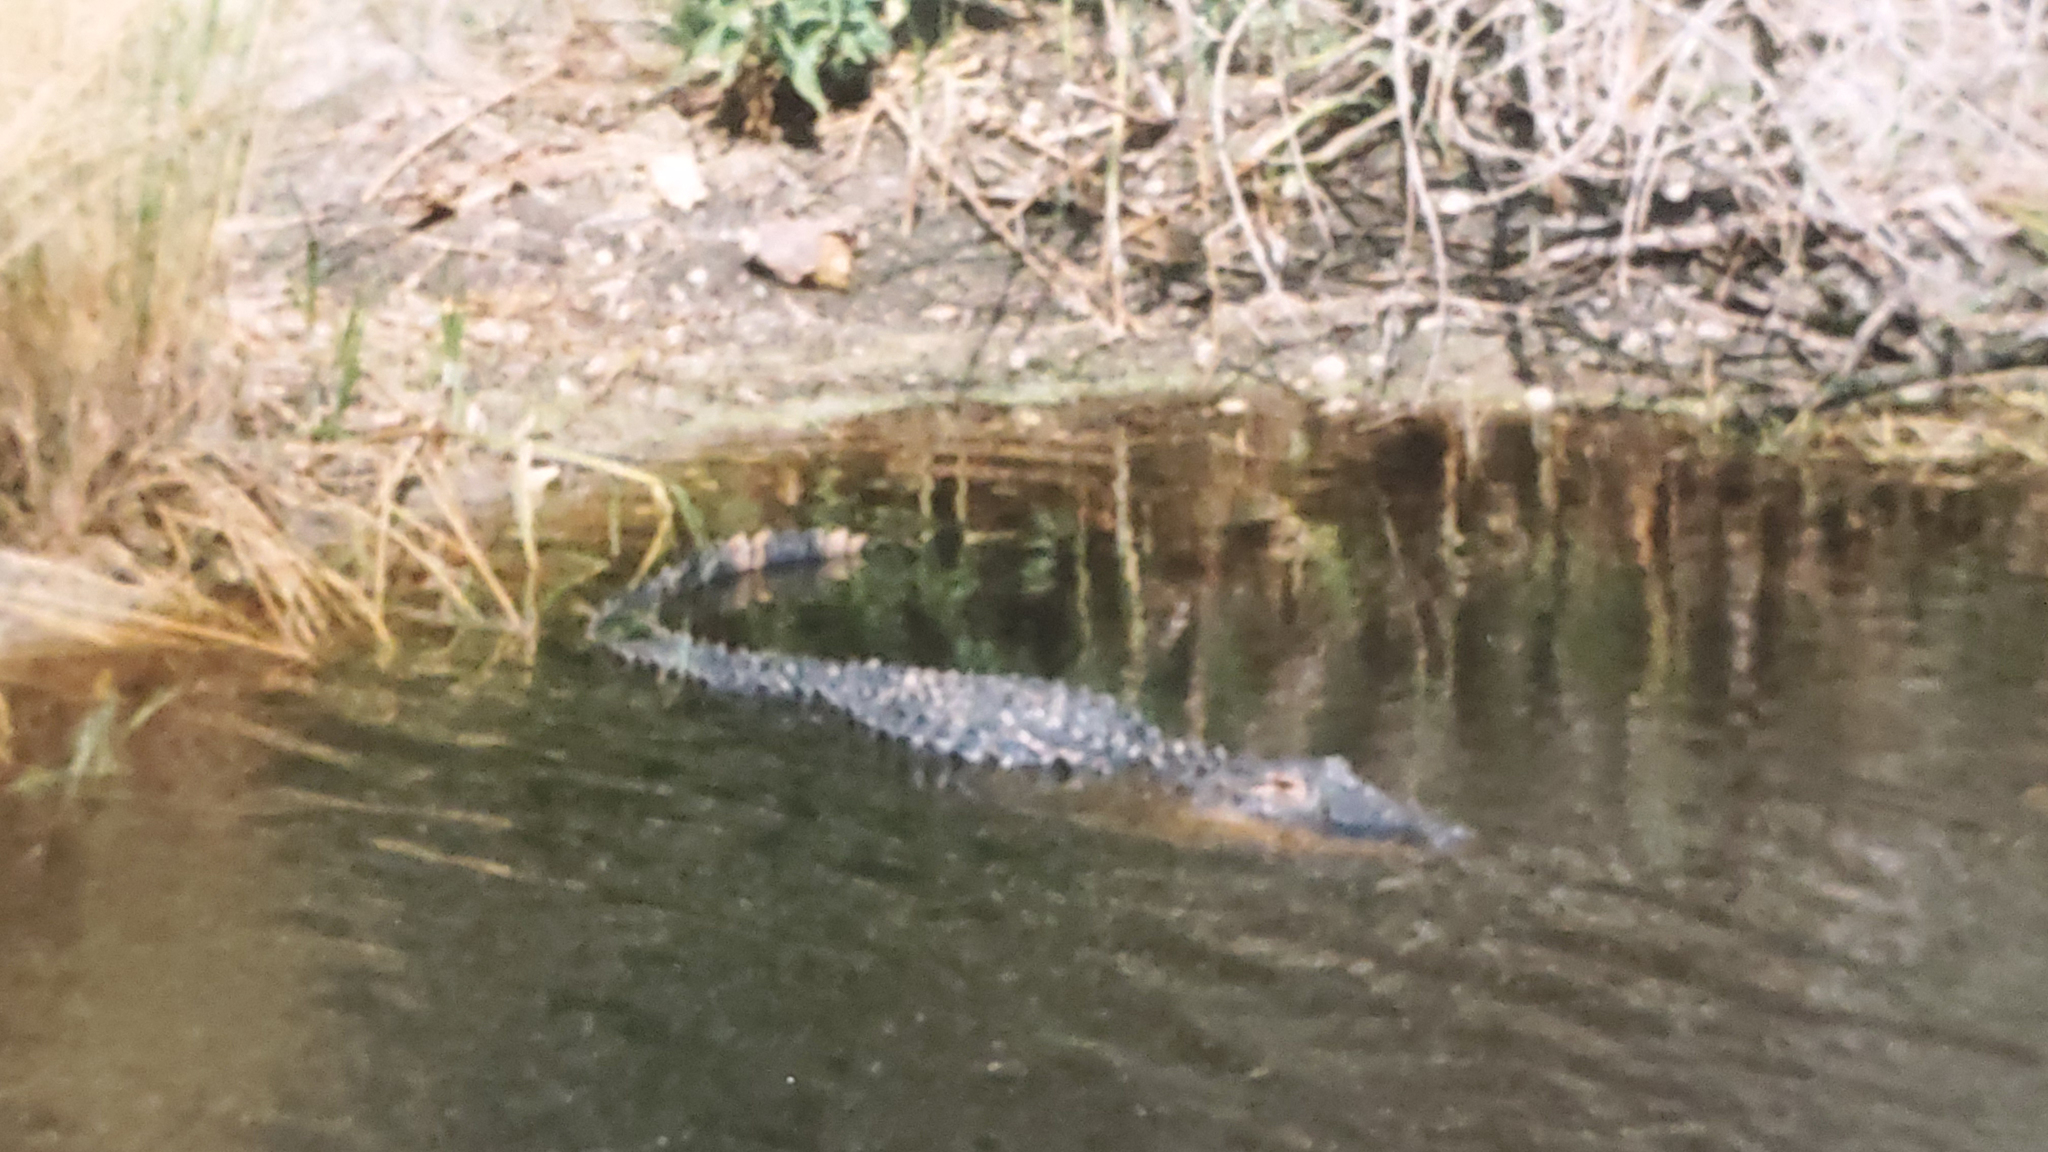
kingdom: Animalia
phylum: Chordata
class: Crocodylia
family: Alligatoridae
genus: Alligator
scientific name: Alligator mississippiensis
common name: American alligator
